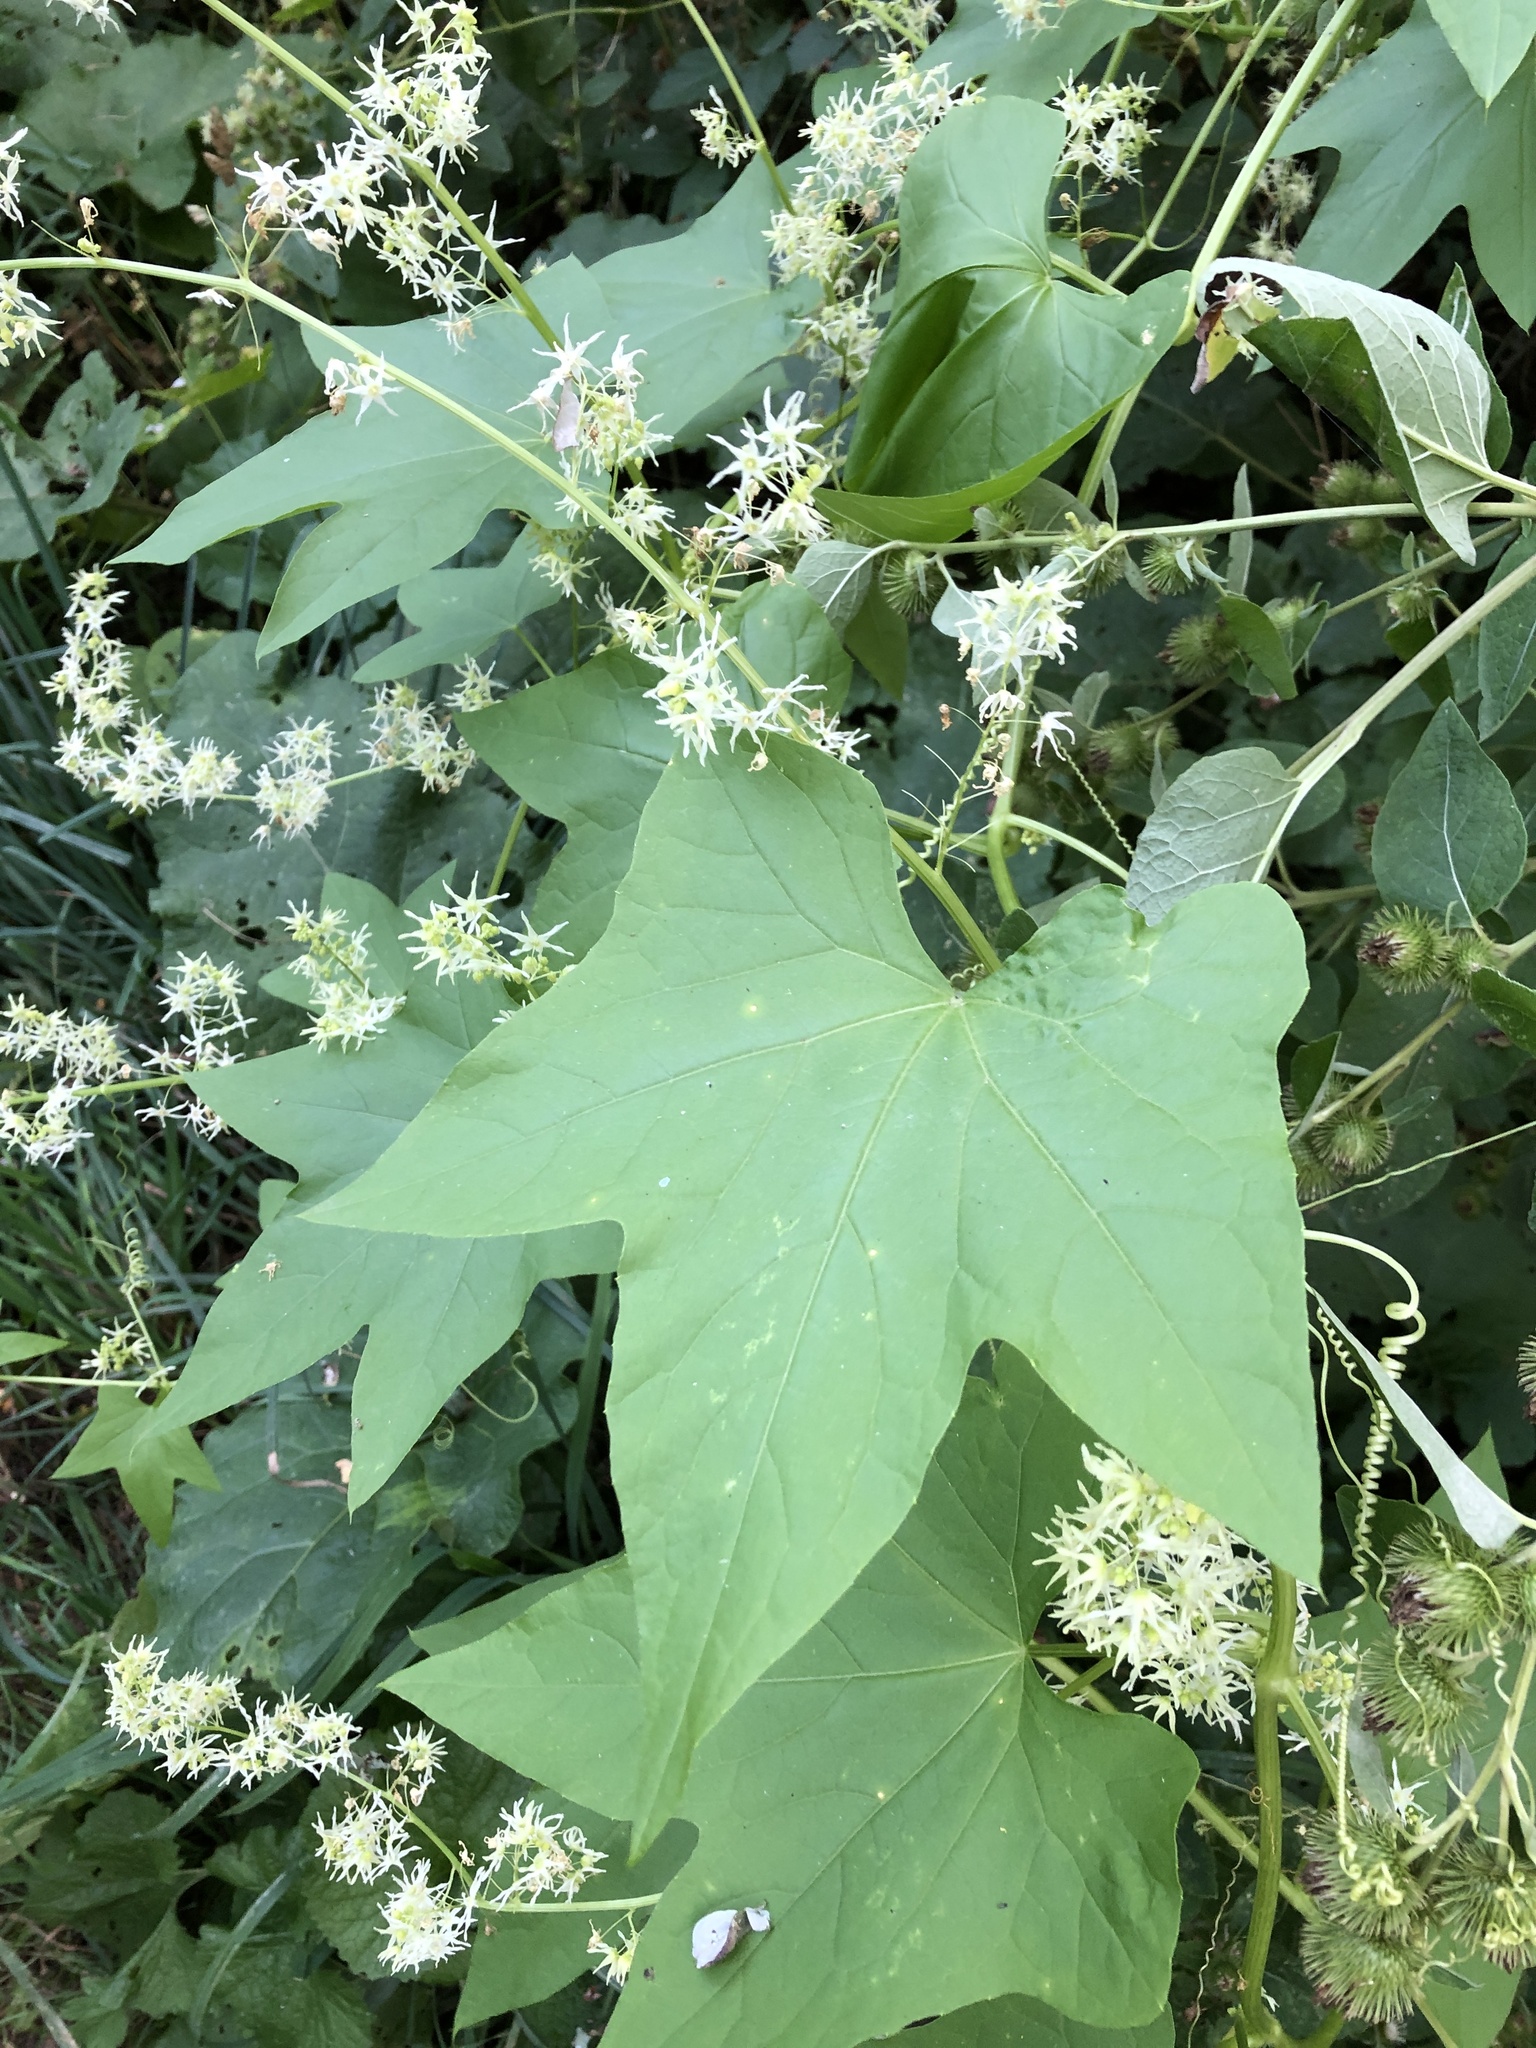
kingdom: Plantae
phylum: Tracheophyta
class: Magnoliopsida
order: Cucurbitales
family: Cucurbitaceae
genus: Echinocystis
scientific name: Echinocystis lobata
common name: Wild cucumber
